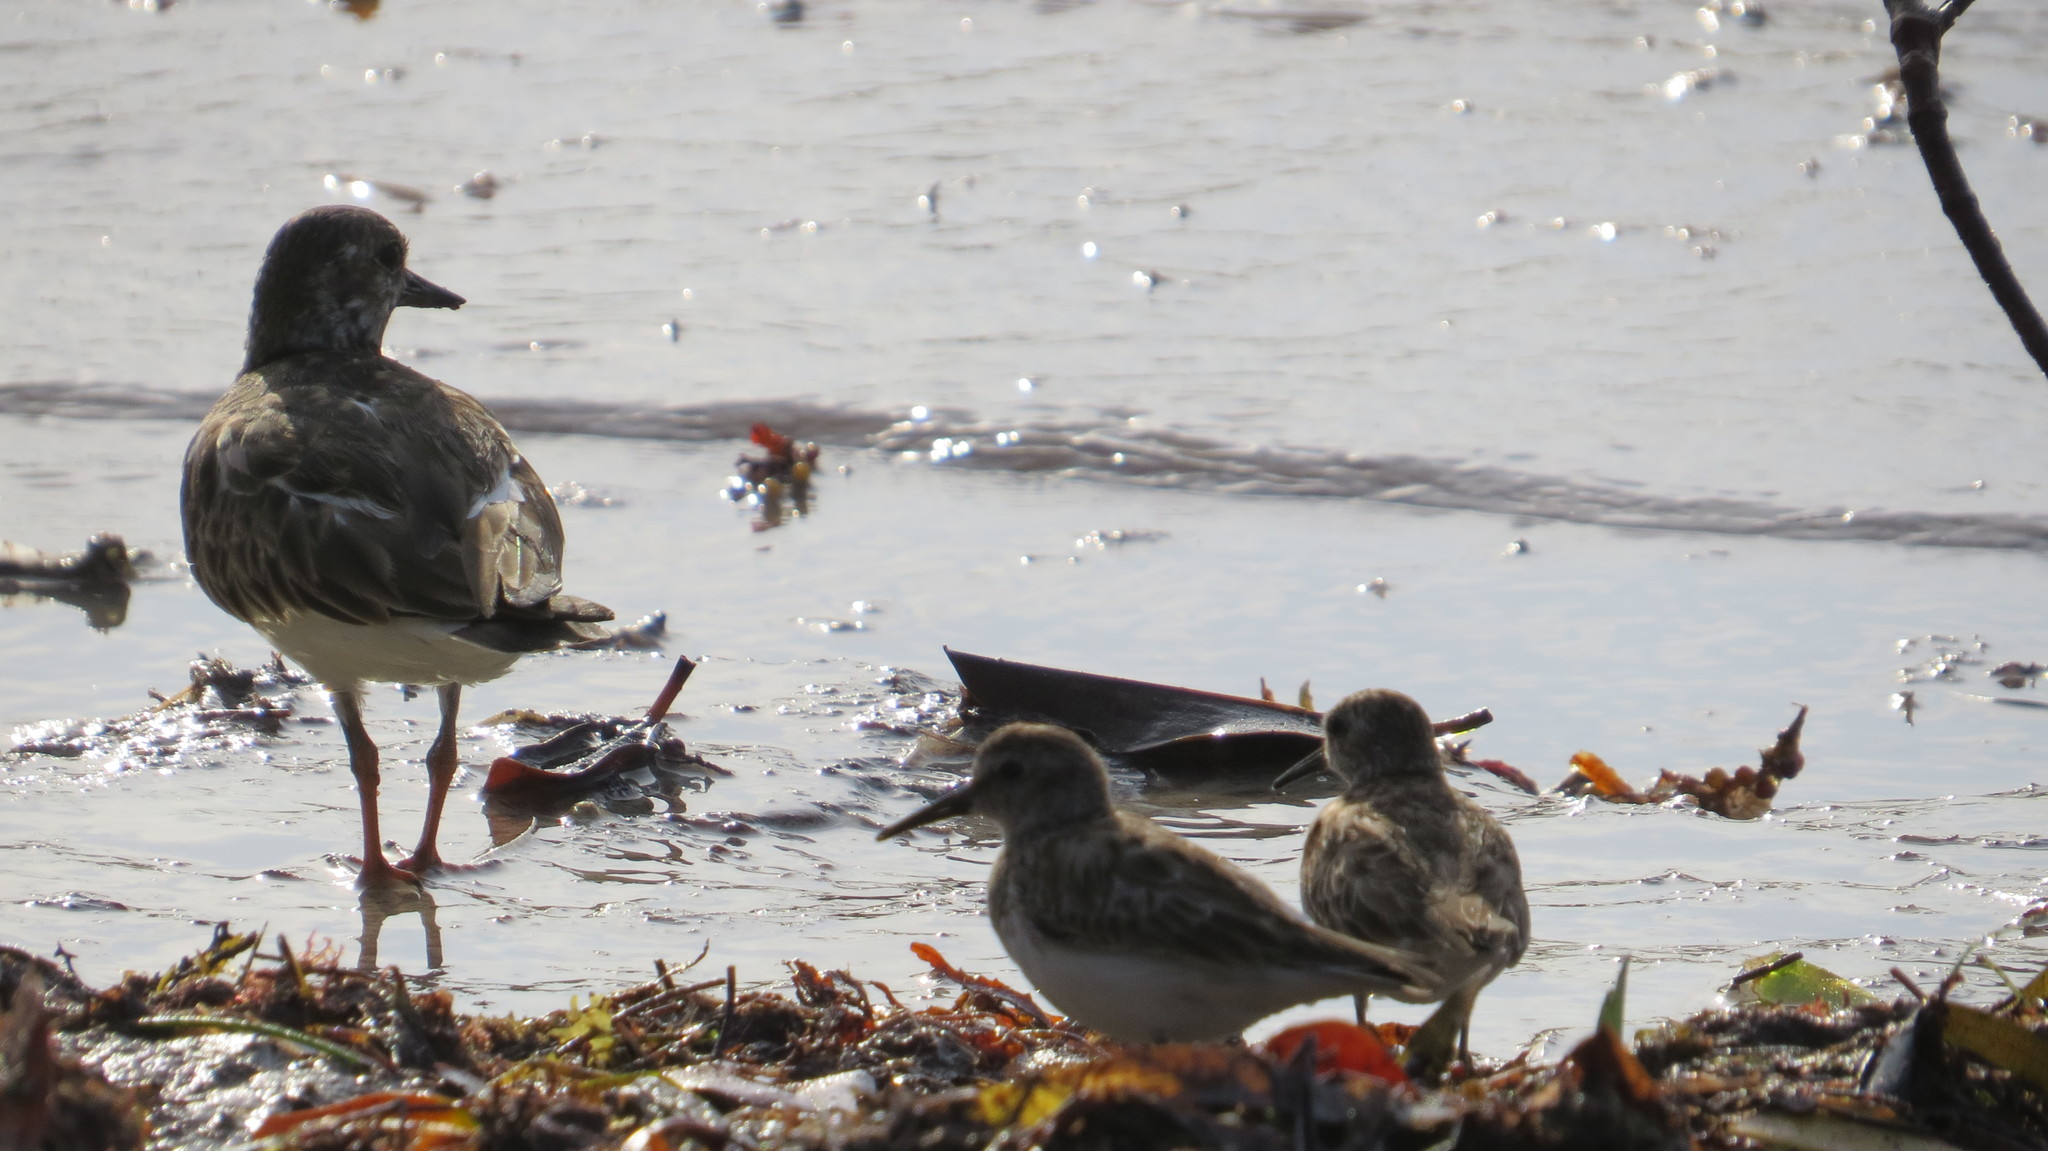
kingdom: Animalia
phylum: Chordata
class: Aves
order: Charadriiformes
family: Scolopacidae
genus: Arenaria
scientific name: Arenaria interpres
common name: Ruddy turnstone
